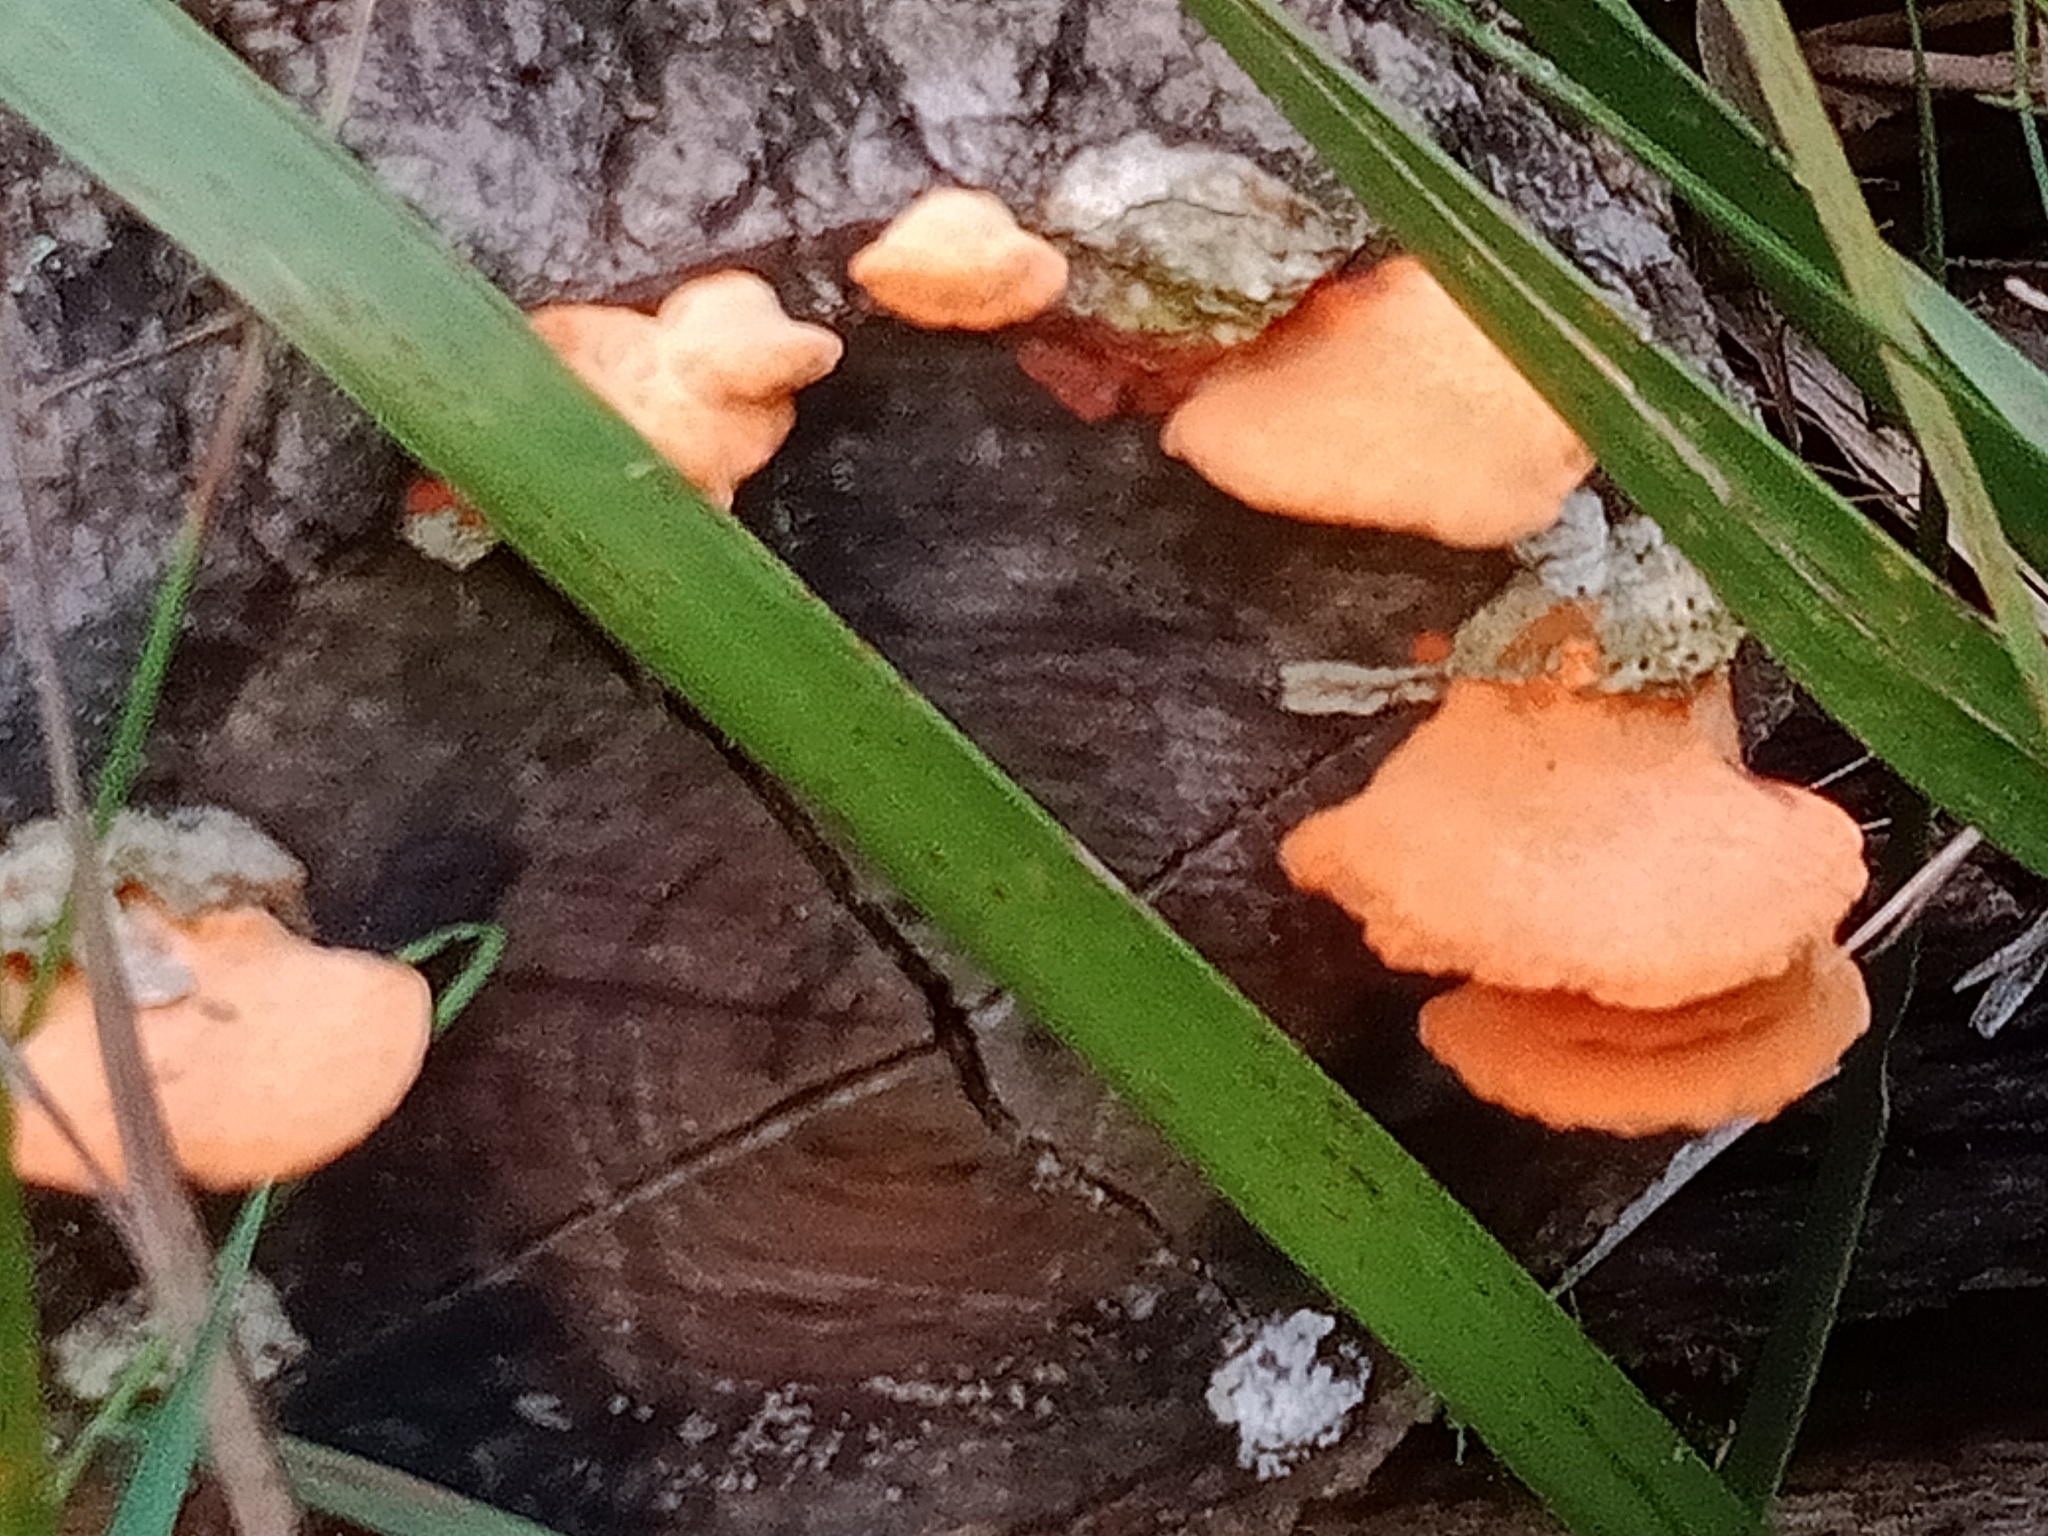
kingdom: Fungi
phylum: Basidiomycota
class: Agaricomycetes
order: Polyporales
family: Polyporaceae
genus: Trametes
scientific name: Trametes coccinea
